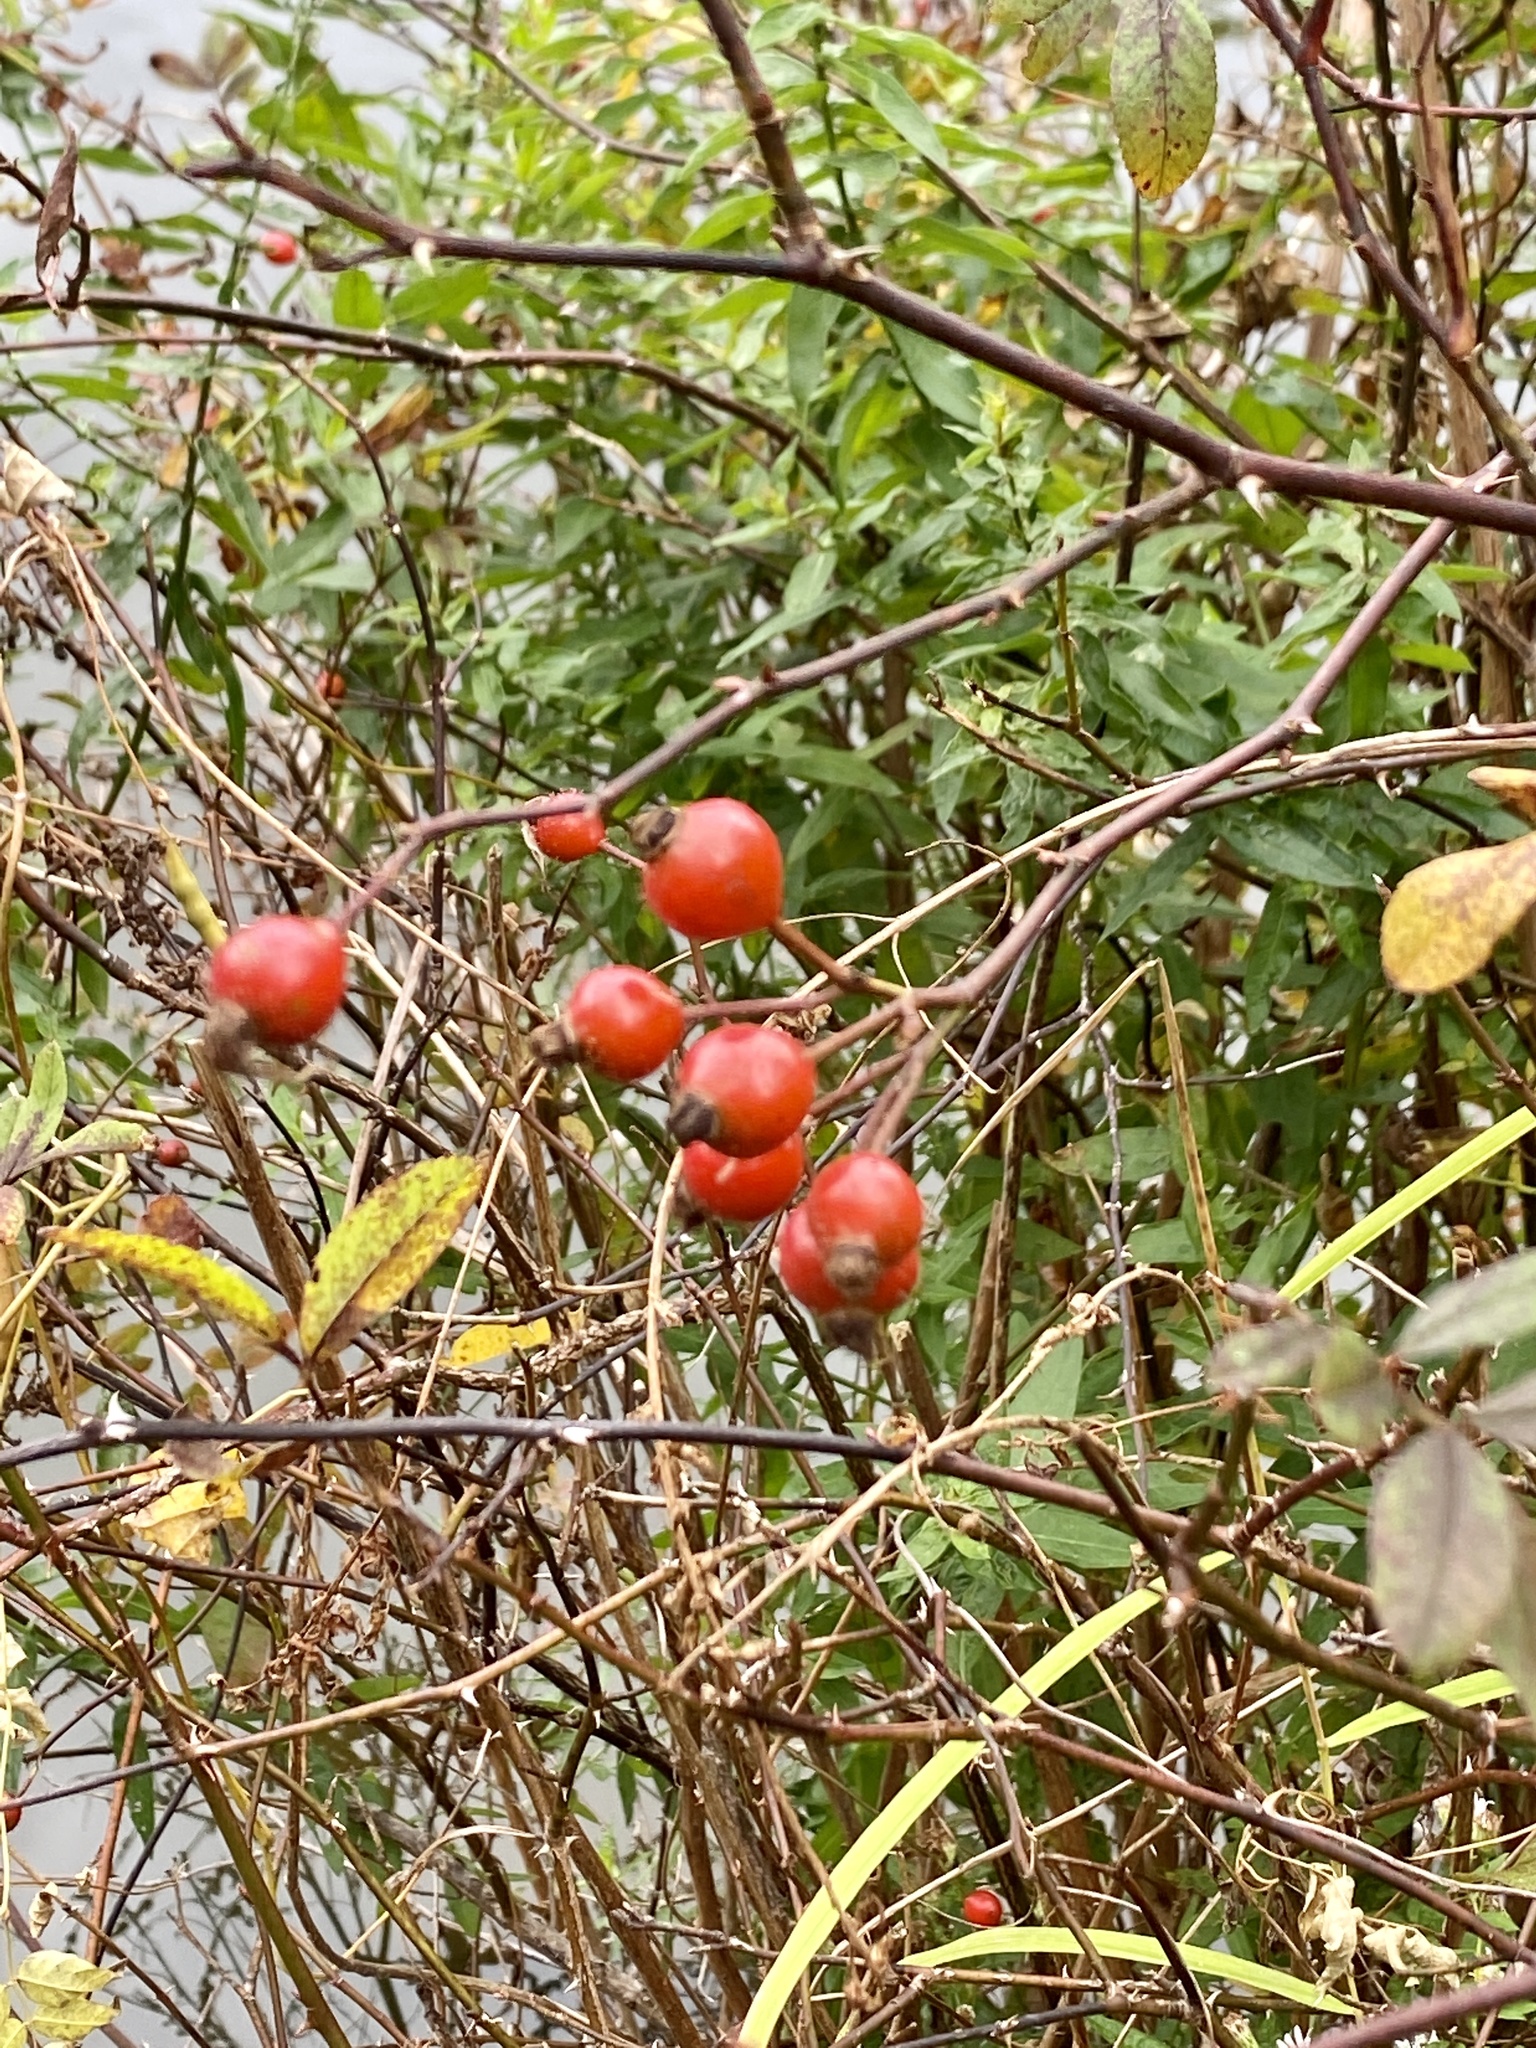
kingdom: Plantae
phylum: Tracheophyta
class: Magnoliopsida
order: Rosales
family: Rosaceae
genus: Rosa
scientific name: Rosa palustris
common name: Swamp rose
